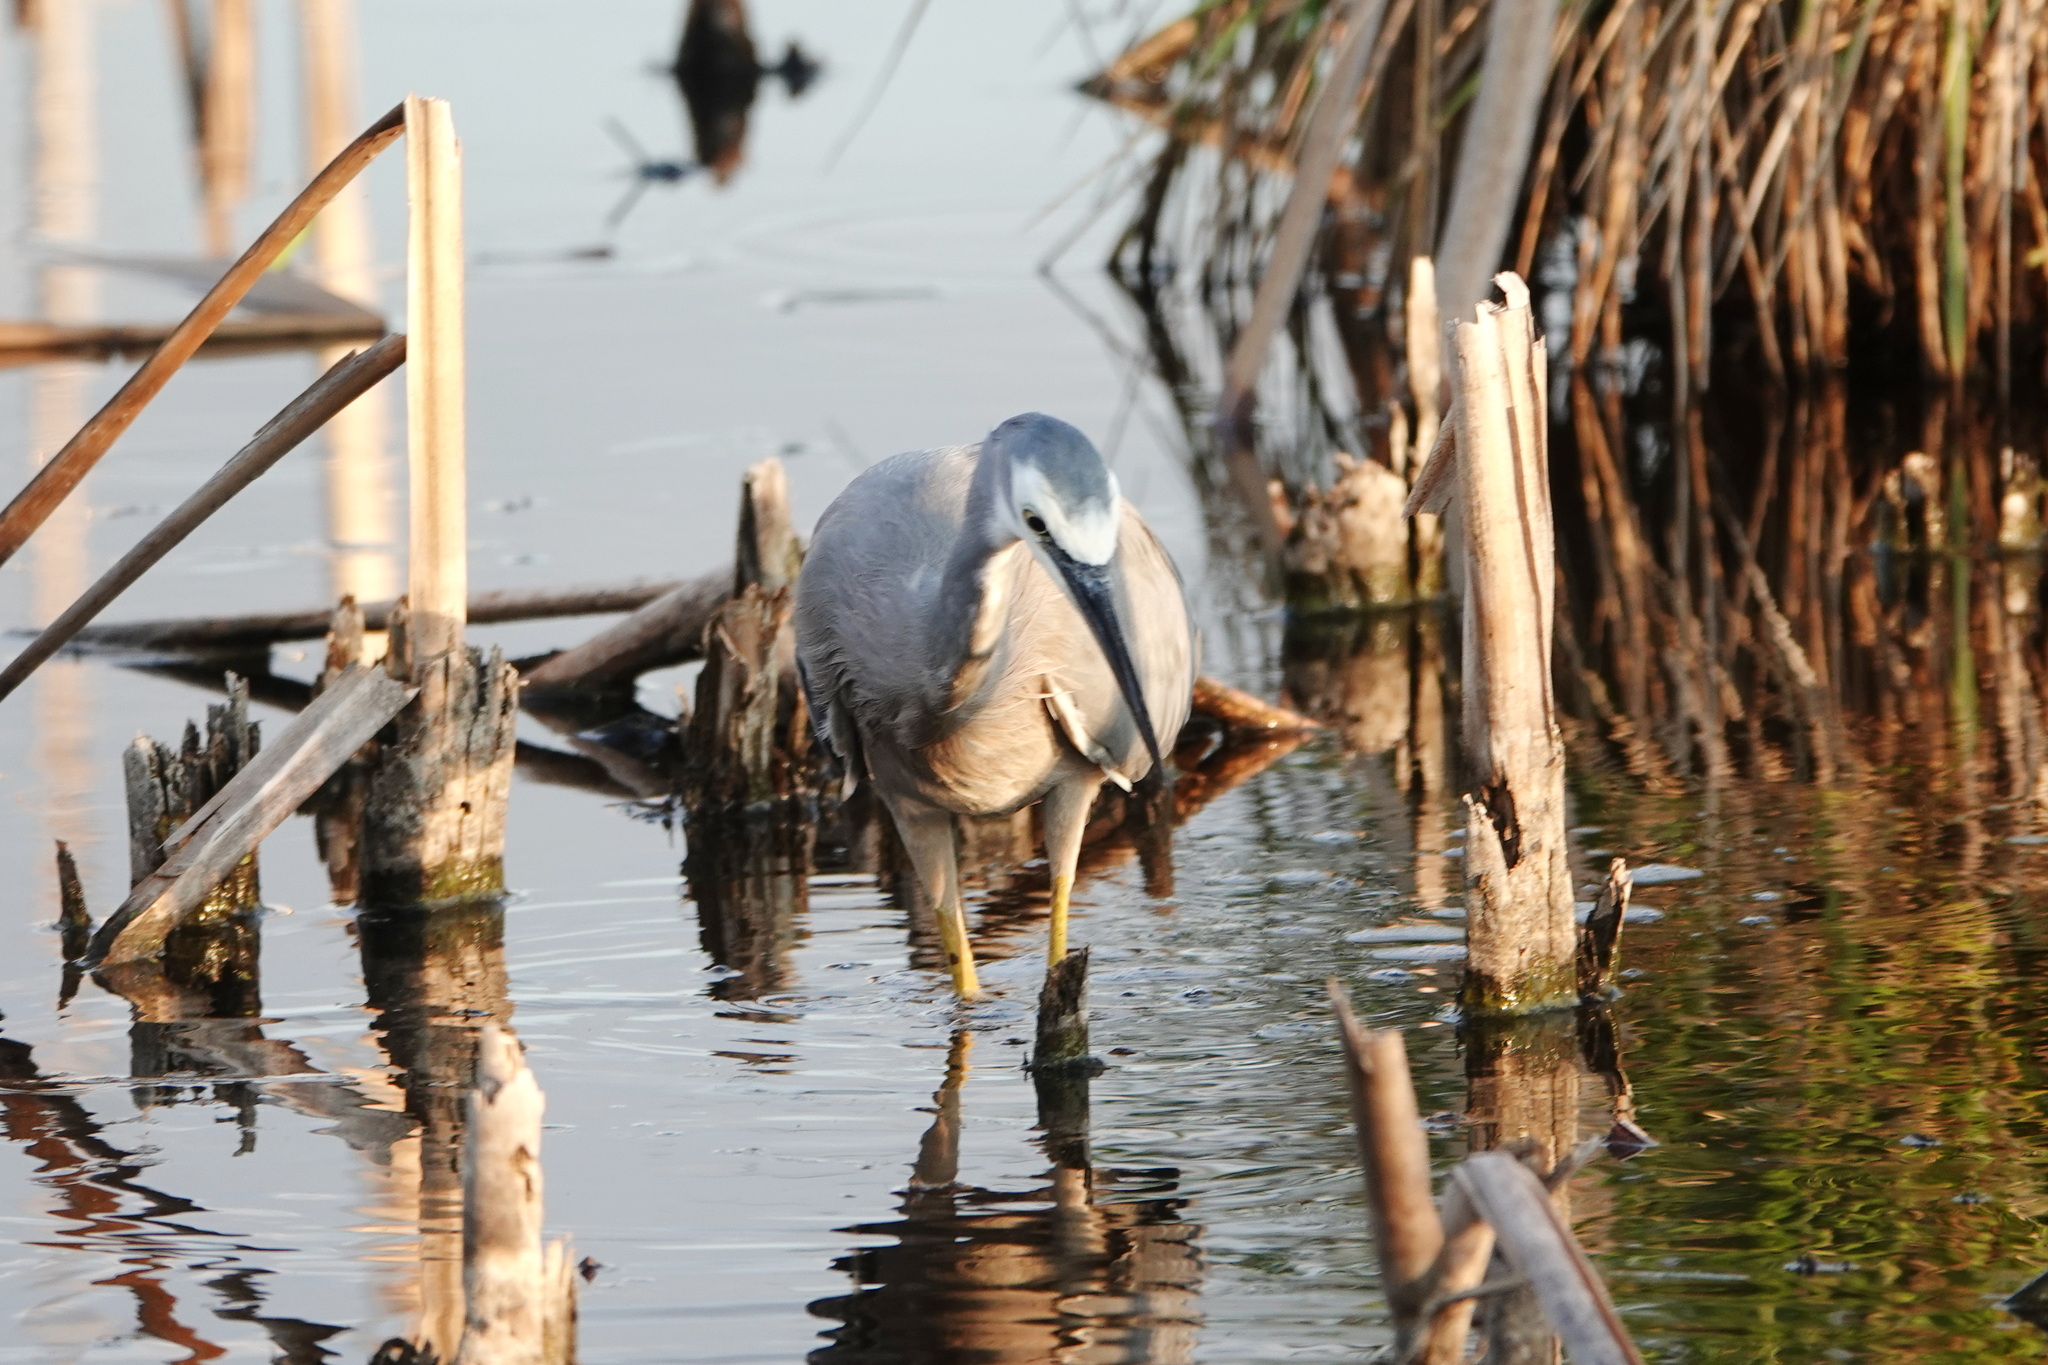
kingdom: Animalia
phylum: Chordata
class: Aves
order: Pelecaniformes
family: Ardeidae
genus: Egretta
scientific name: Egretta novaehollandiae
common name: White-faced heron
